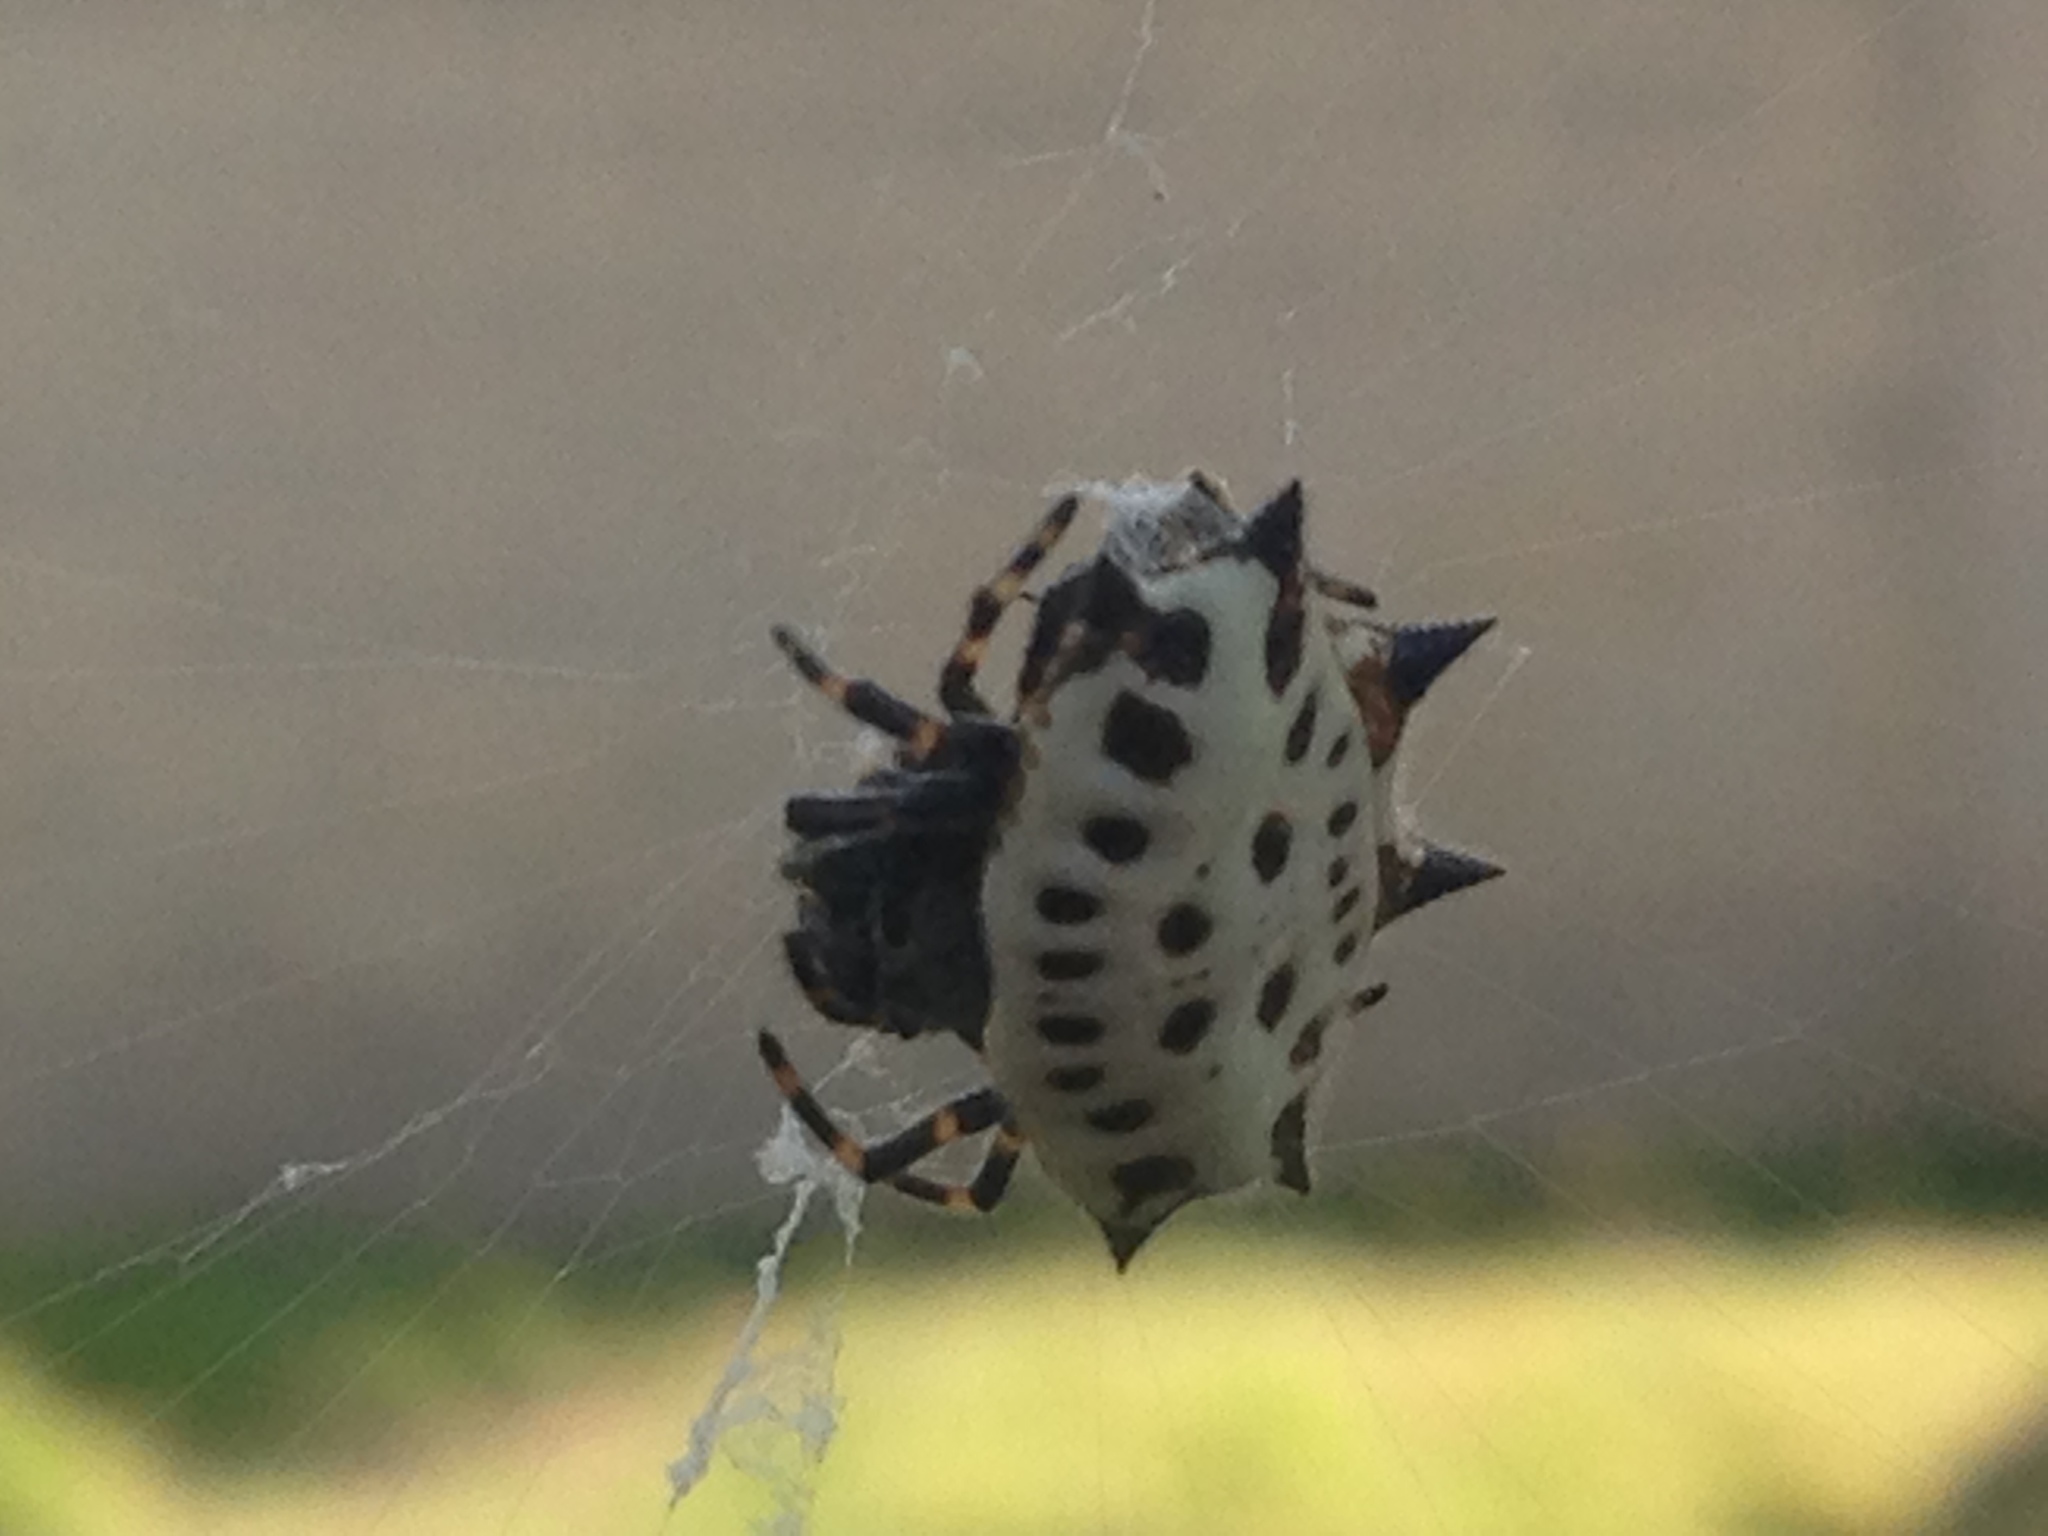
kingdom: Animalia
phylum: Arthropoda
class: Arachnida
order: Araneae
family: Araneidae
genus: Gasteracantha
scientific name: Gasteracantha cancriformis
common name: Orb weavers
